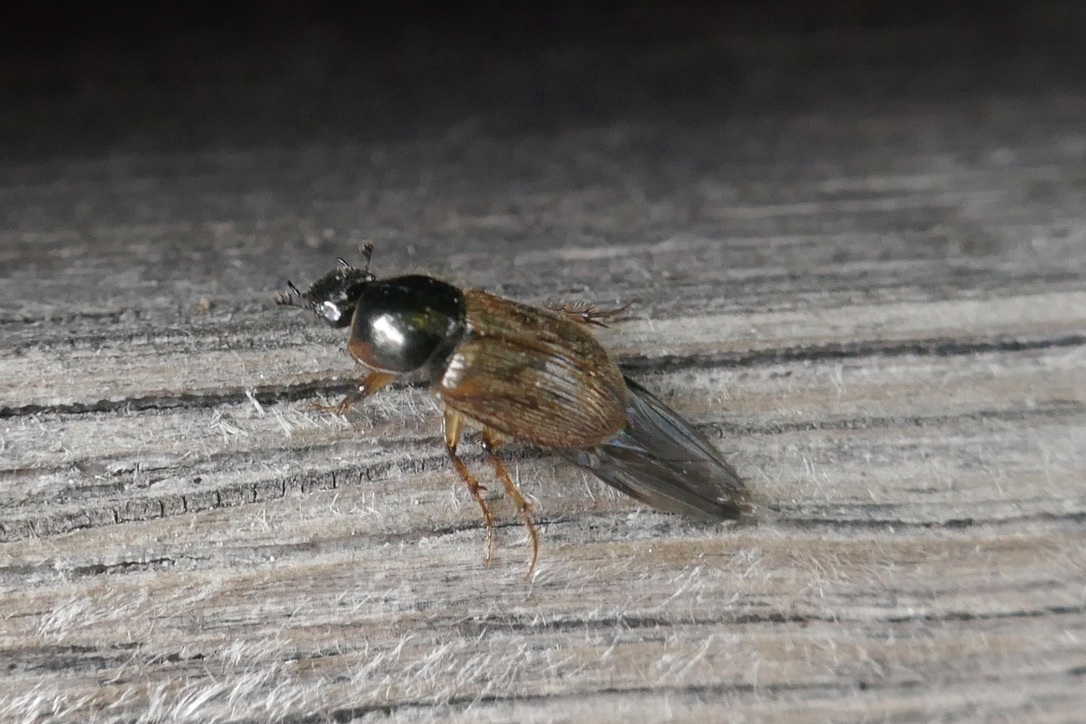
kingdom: Animalia
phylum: Arthropoda
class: Insecta
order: Coleoptera
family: Scarabaeidae
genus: Nimbus
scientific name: Nimbus contaminatus
